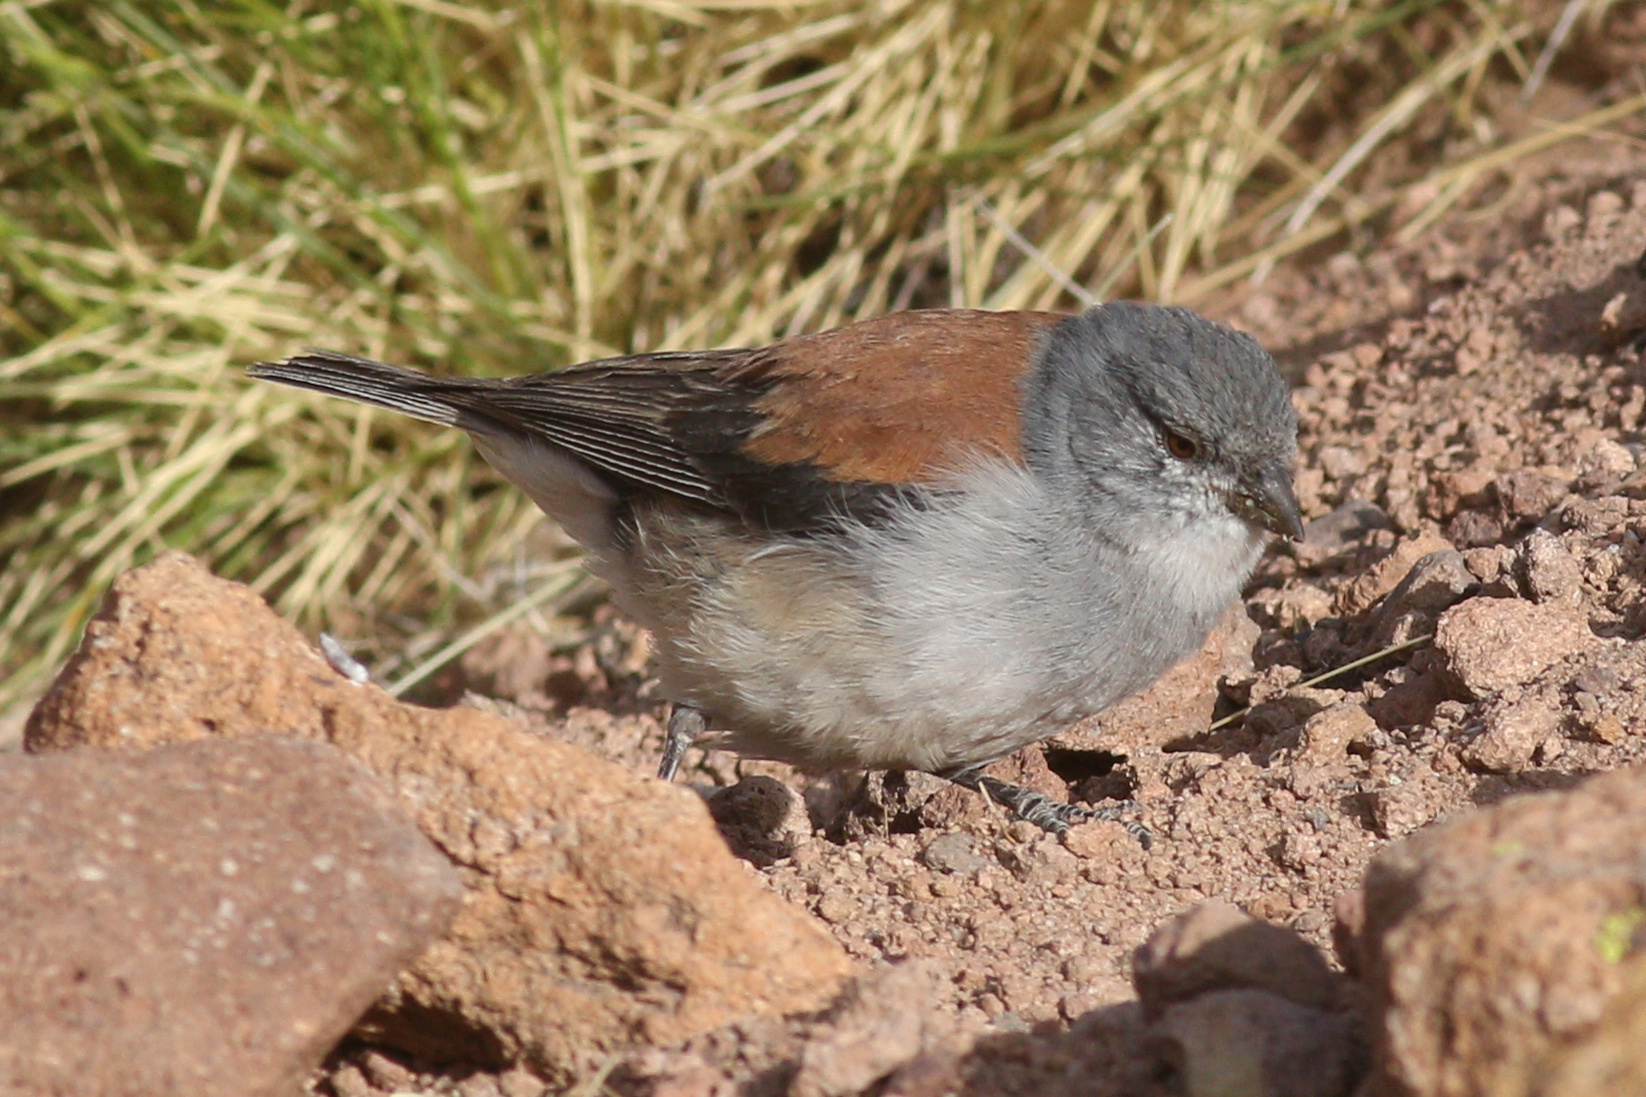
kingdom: Animalia
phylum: Chordata
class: Aves
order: Passeriformes
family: Thraupidae
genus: Idiopsar
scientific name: Idiopsar dorsalis
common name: Red-backed sierra finch
